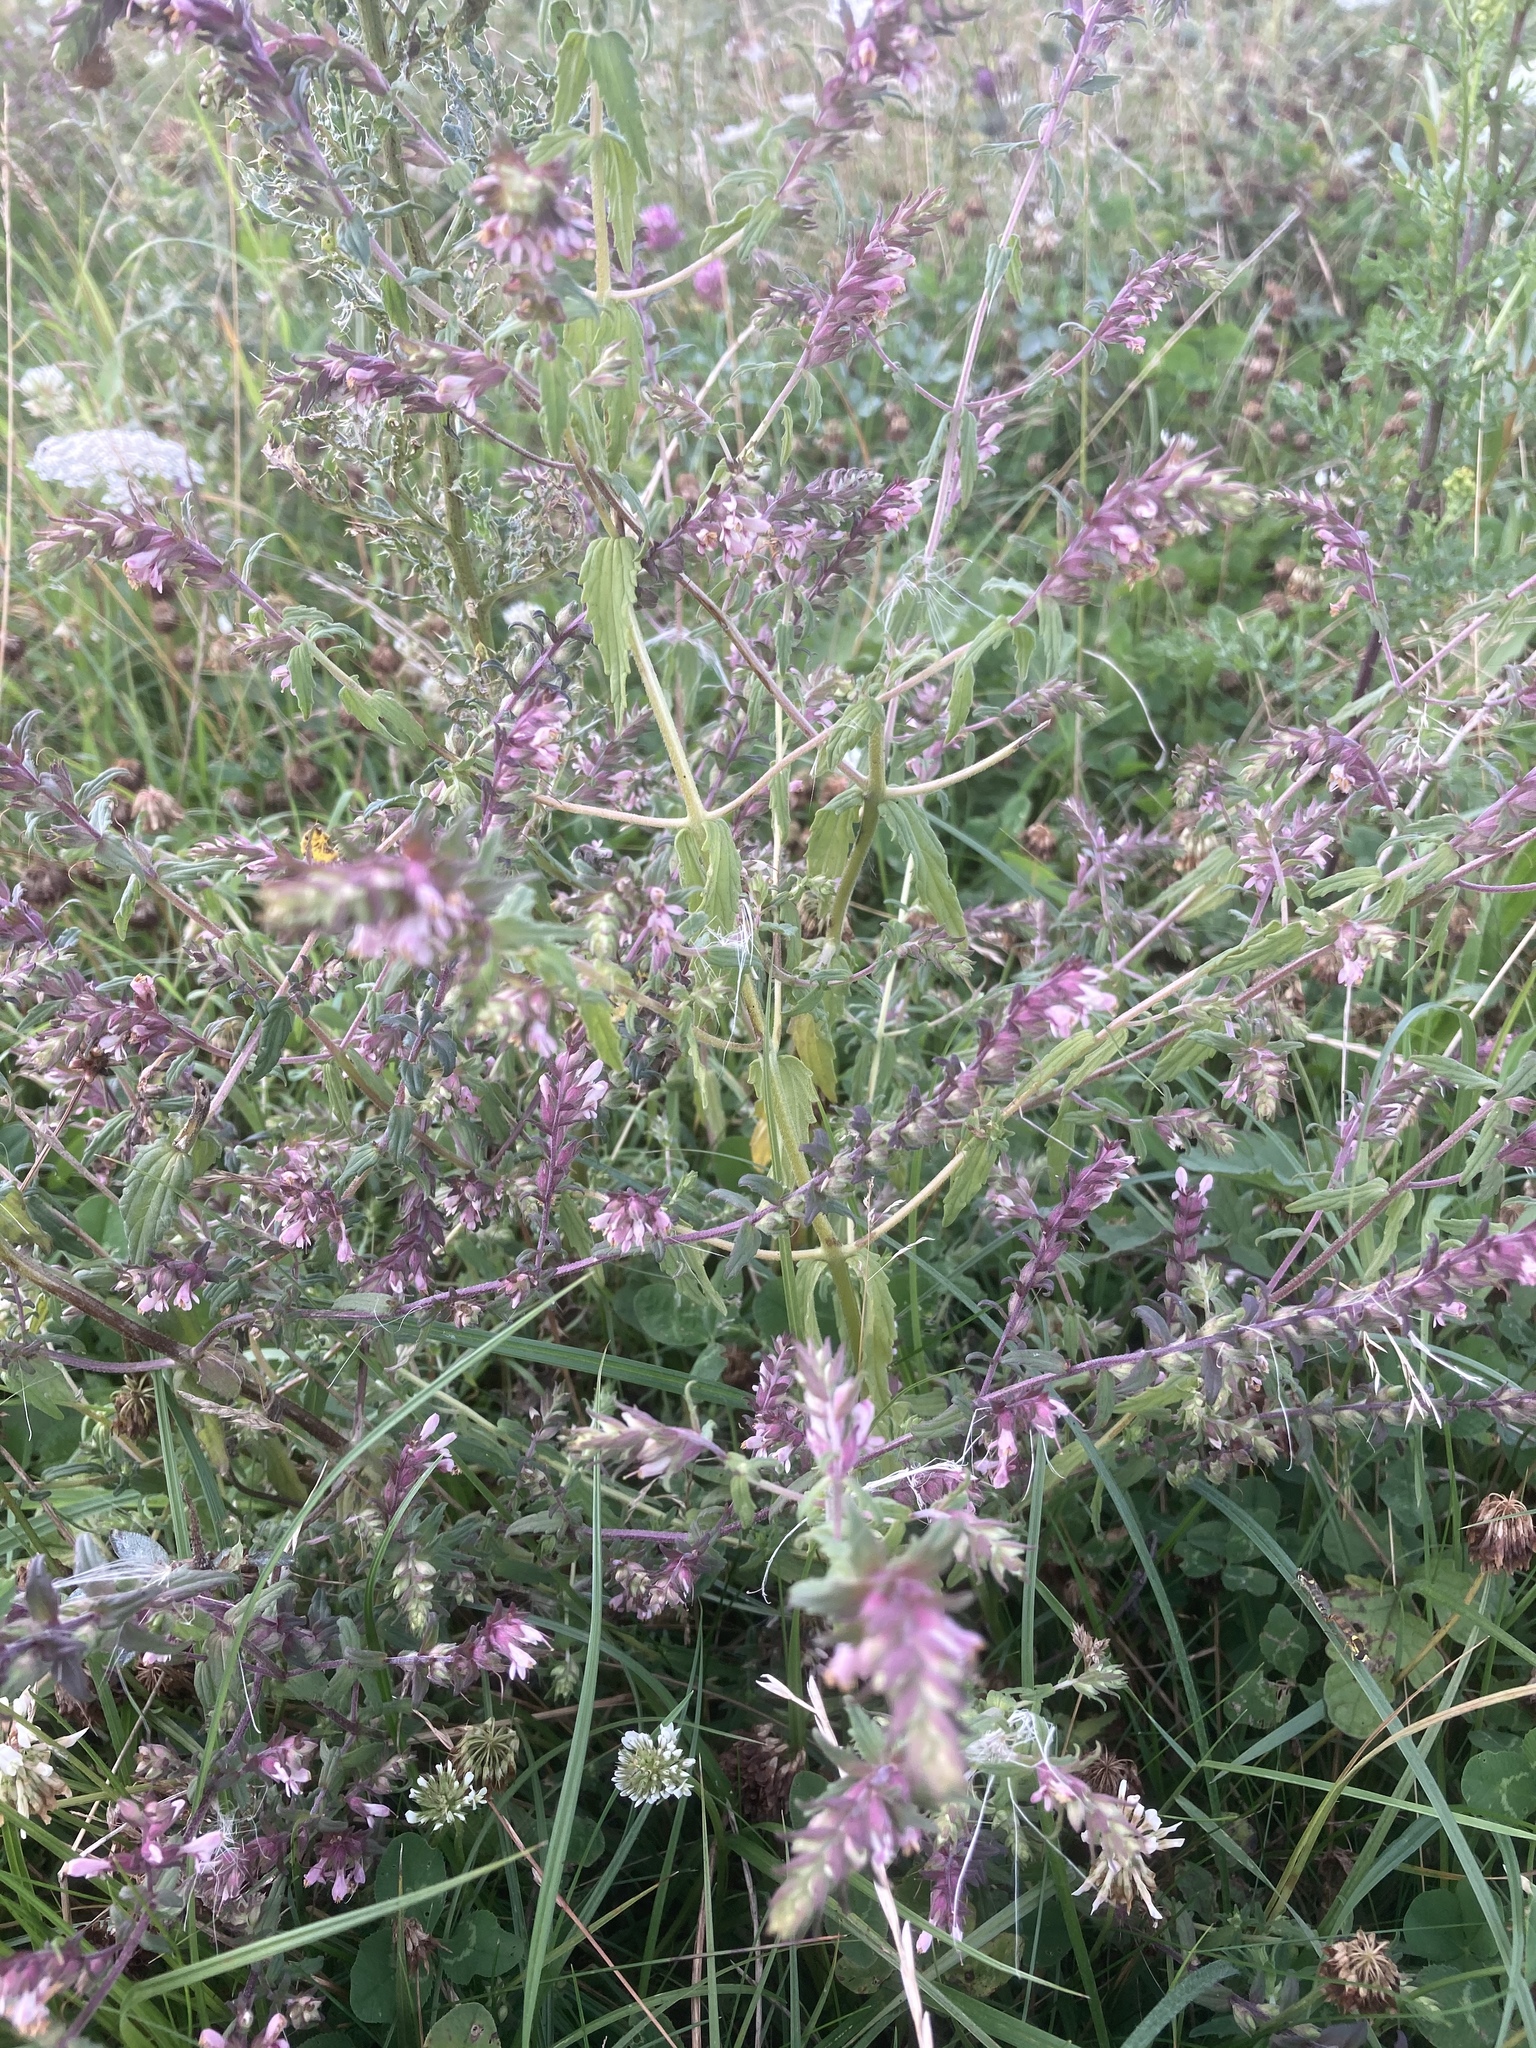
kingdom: Plantae
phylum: Tracheophyta
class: Magnoliopsida
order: Lamiales
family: Orobanchaceae
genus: Odontites
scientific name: Odontites vernus
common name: Red bartsia
